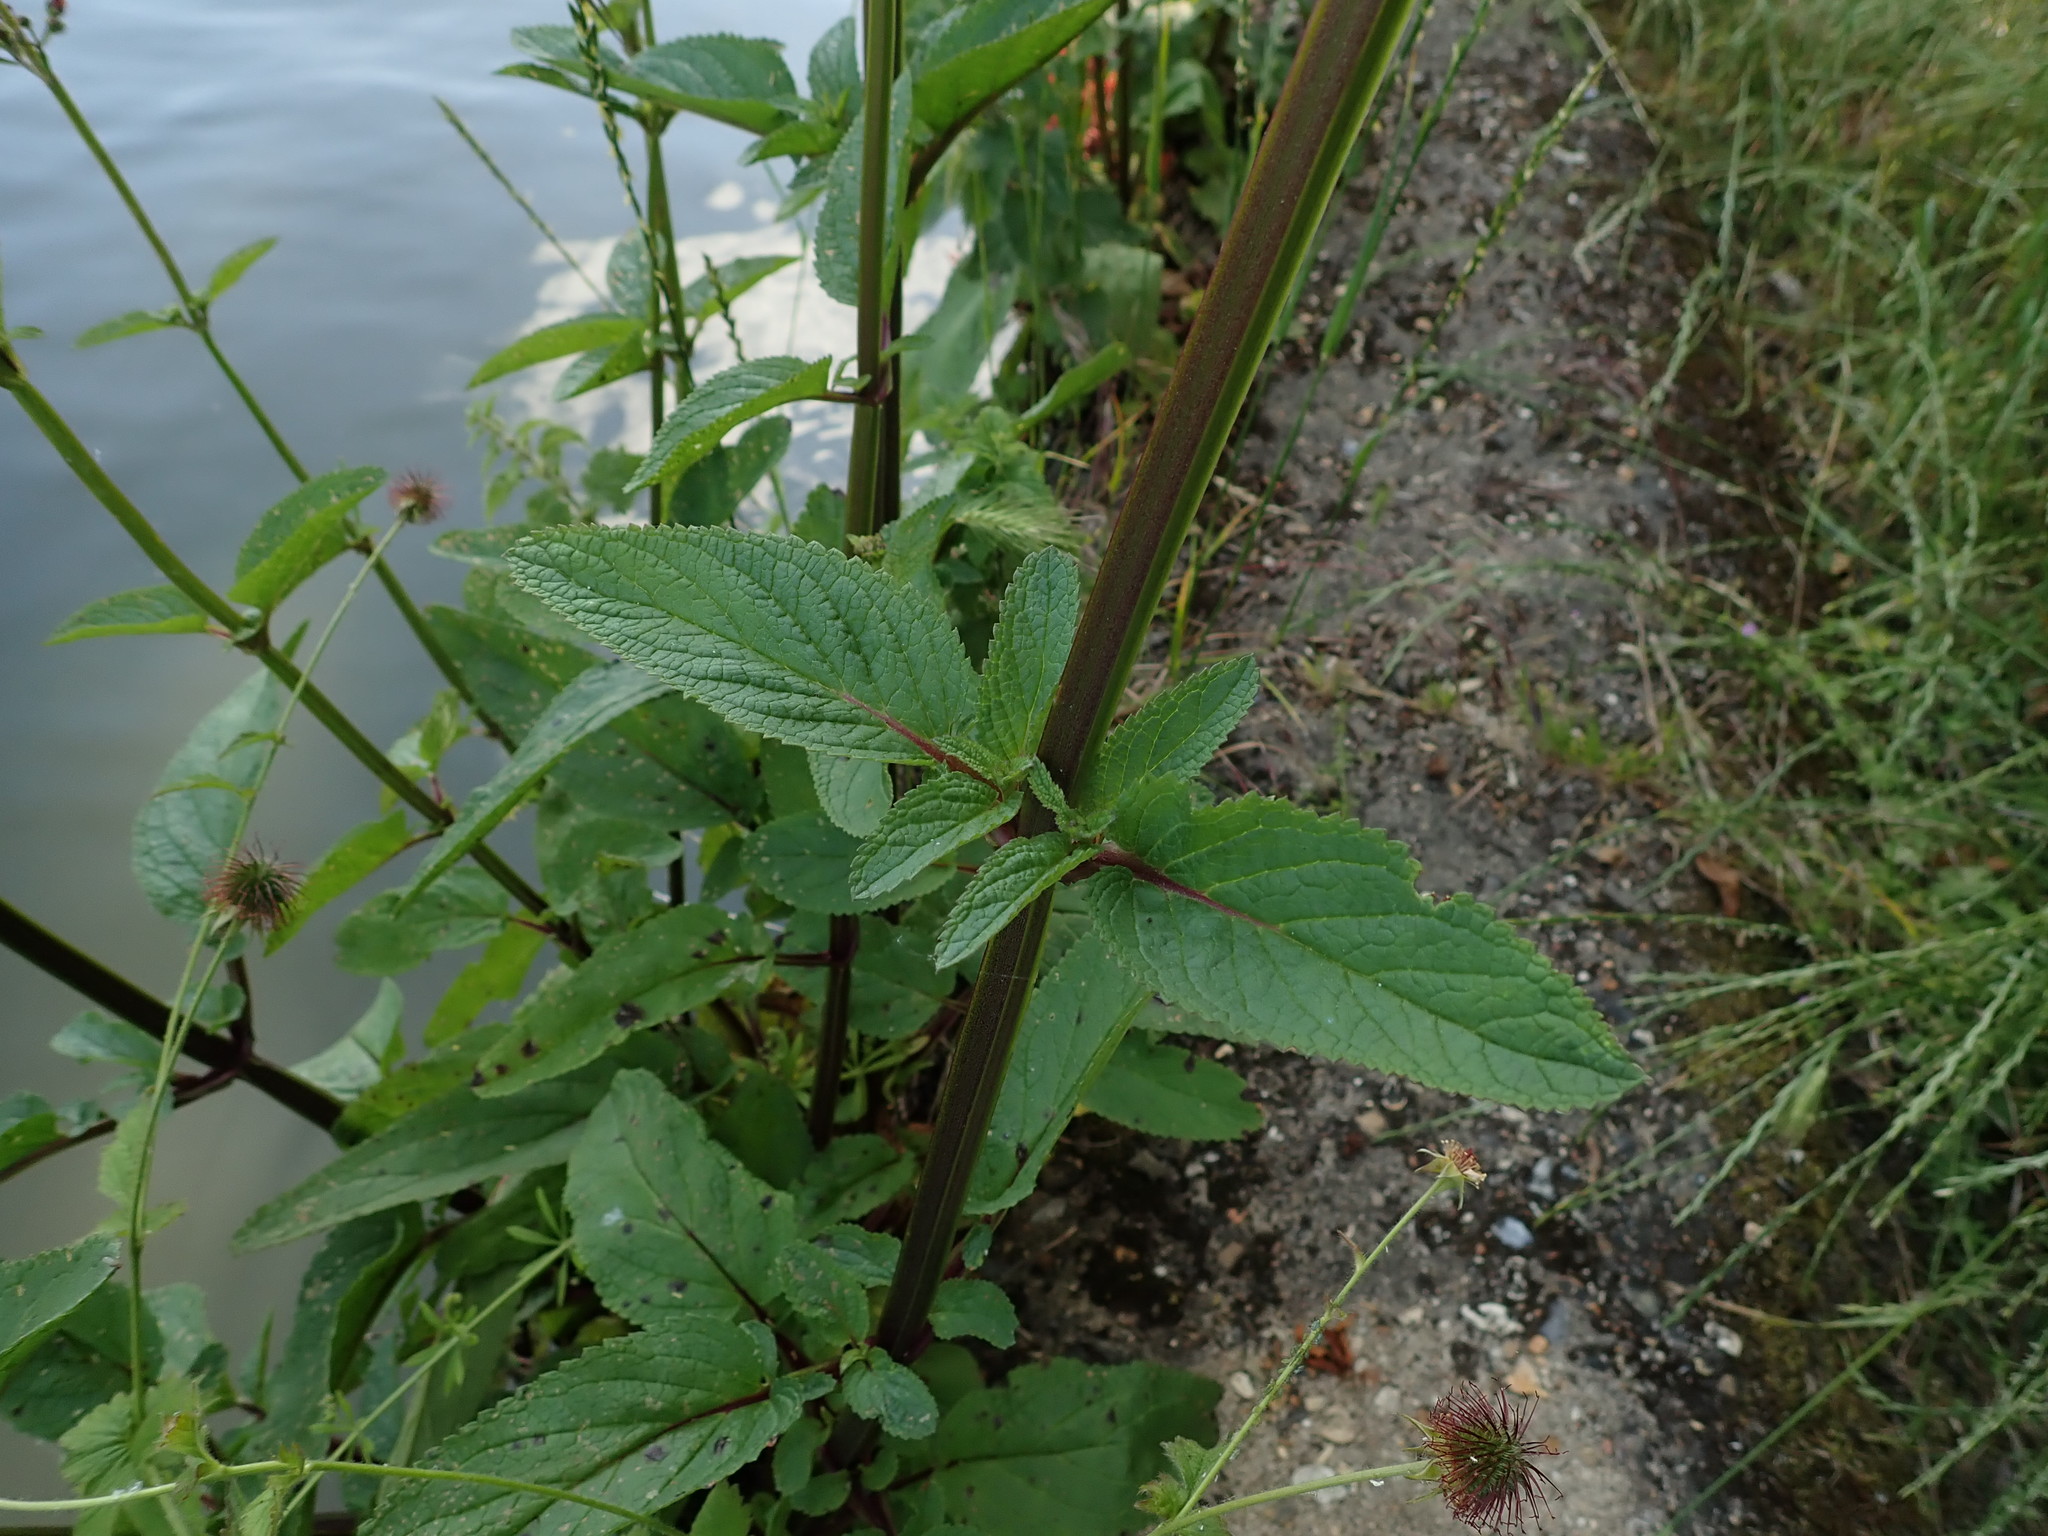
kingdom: Plantae
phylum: Tracheophyta
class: Magnoliopsida
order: Lamiales
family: Scrophulariaceae
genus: Scrophularia
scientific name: Scrophularia auriculata
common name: Water betony
